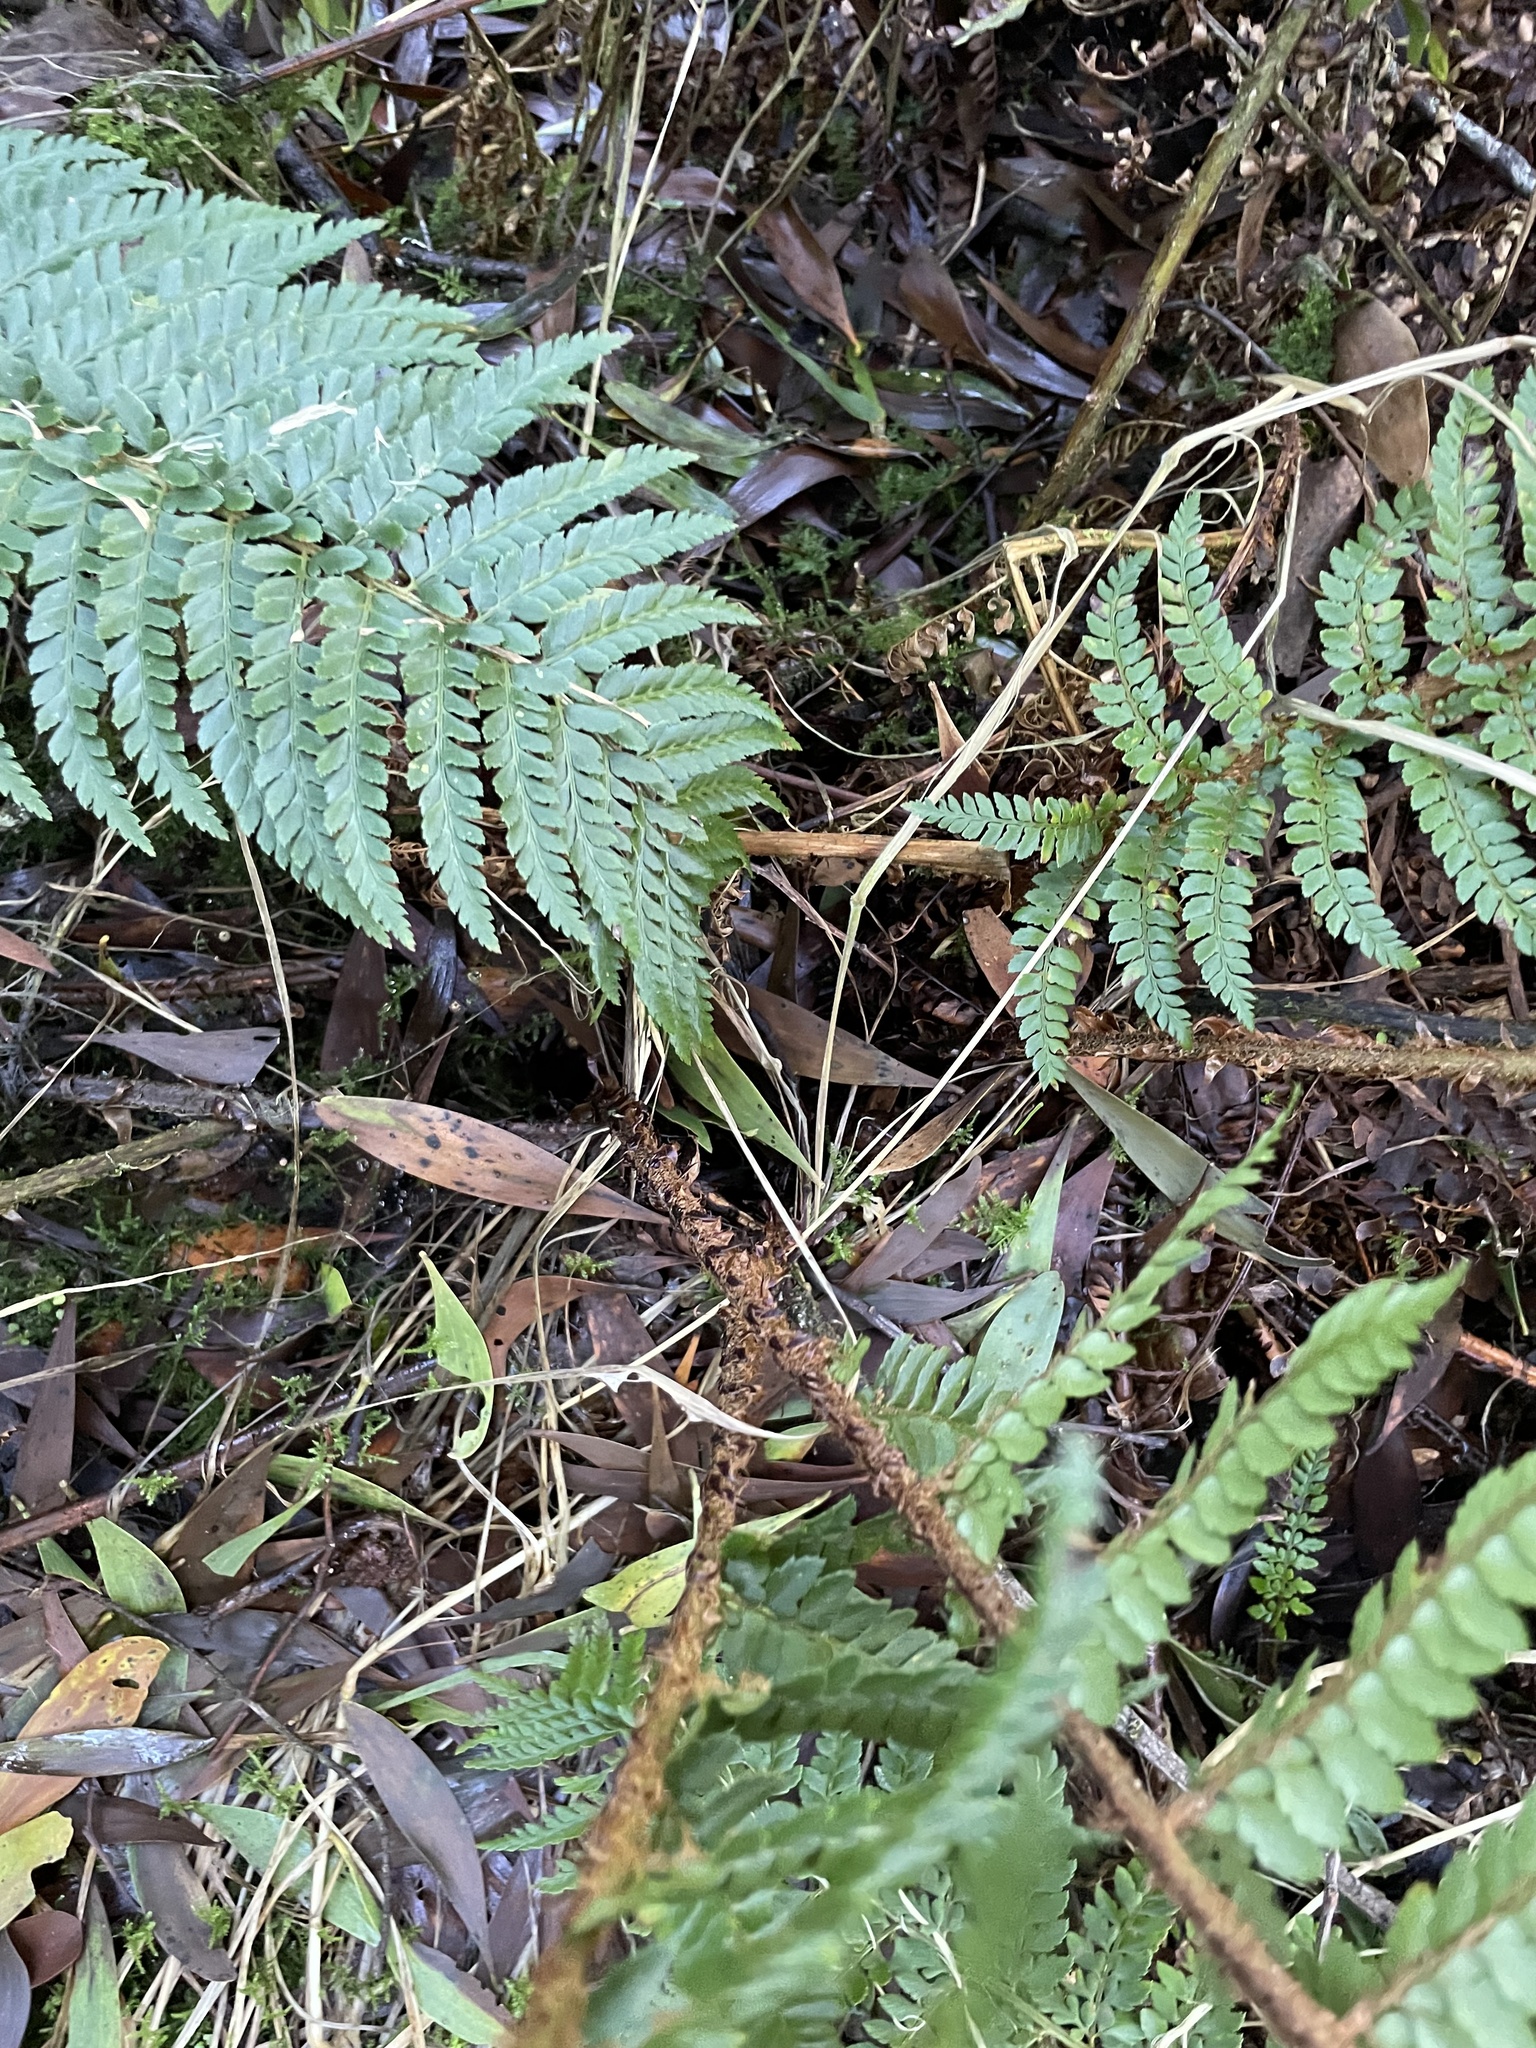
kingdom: Plantae
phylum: Tracheophyta
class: Polypodiopsida
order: Polypodiales
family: Dryopteridaceae
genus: Polystichum
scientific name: Polystichum proliferum
